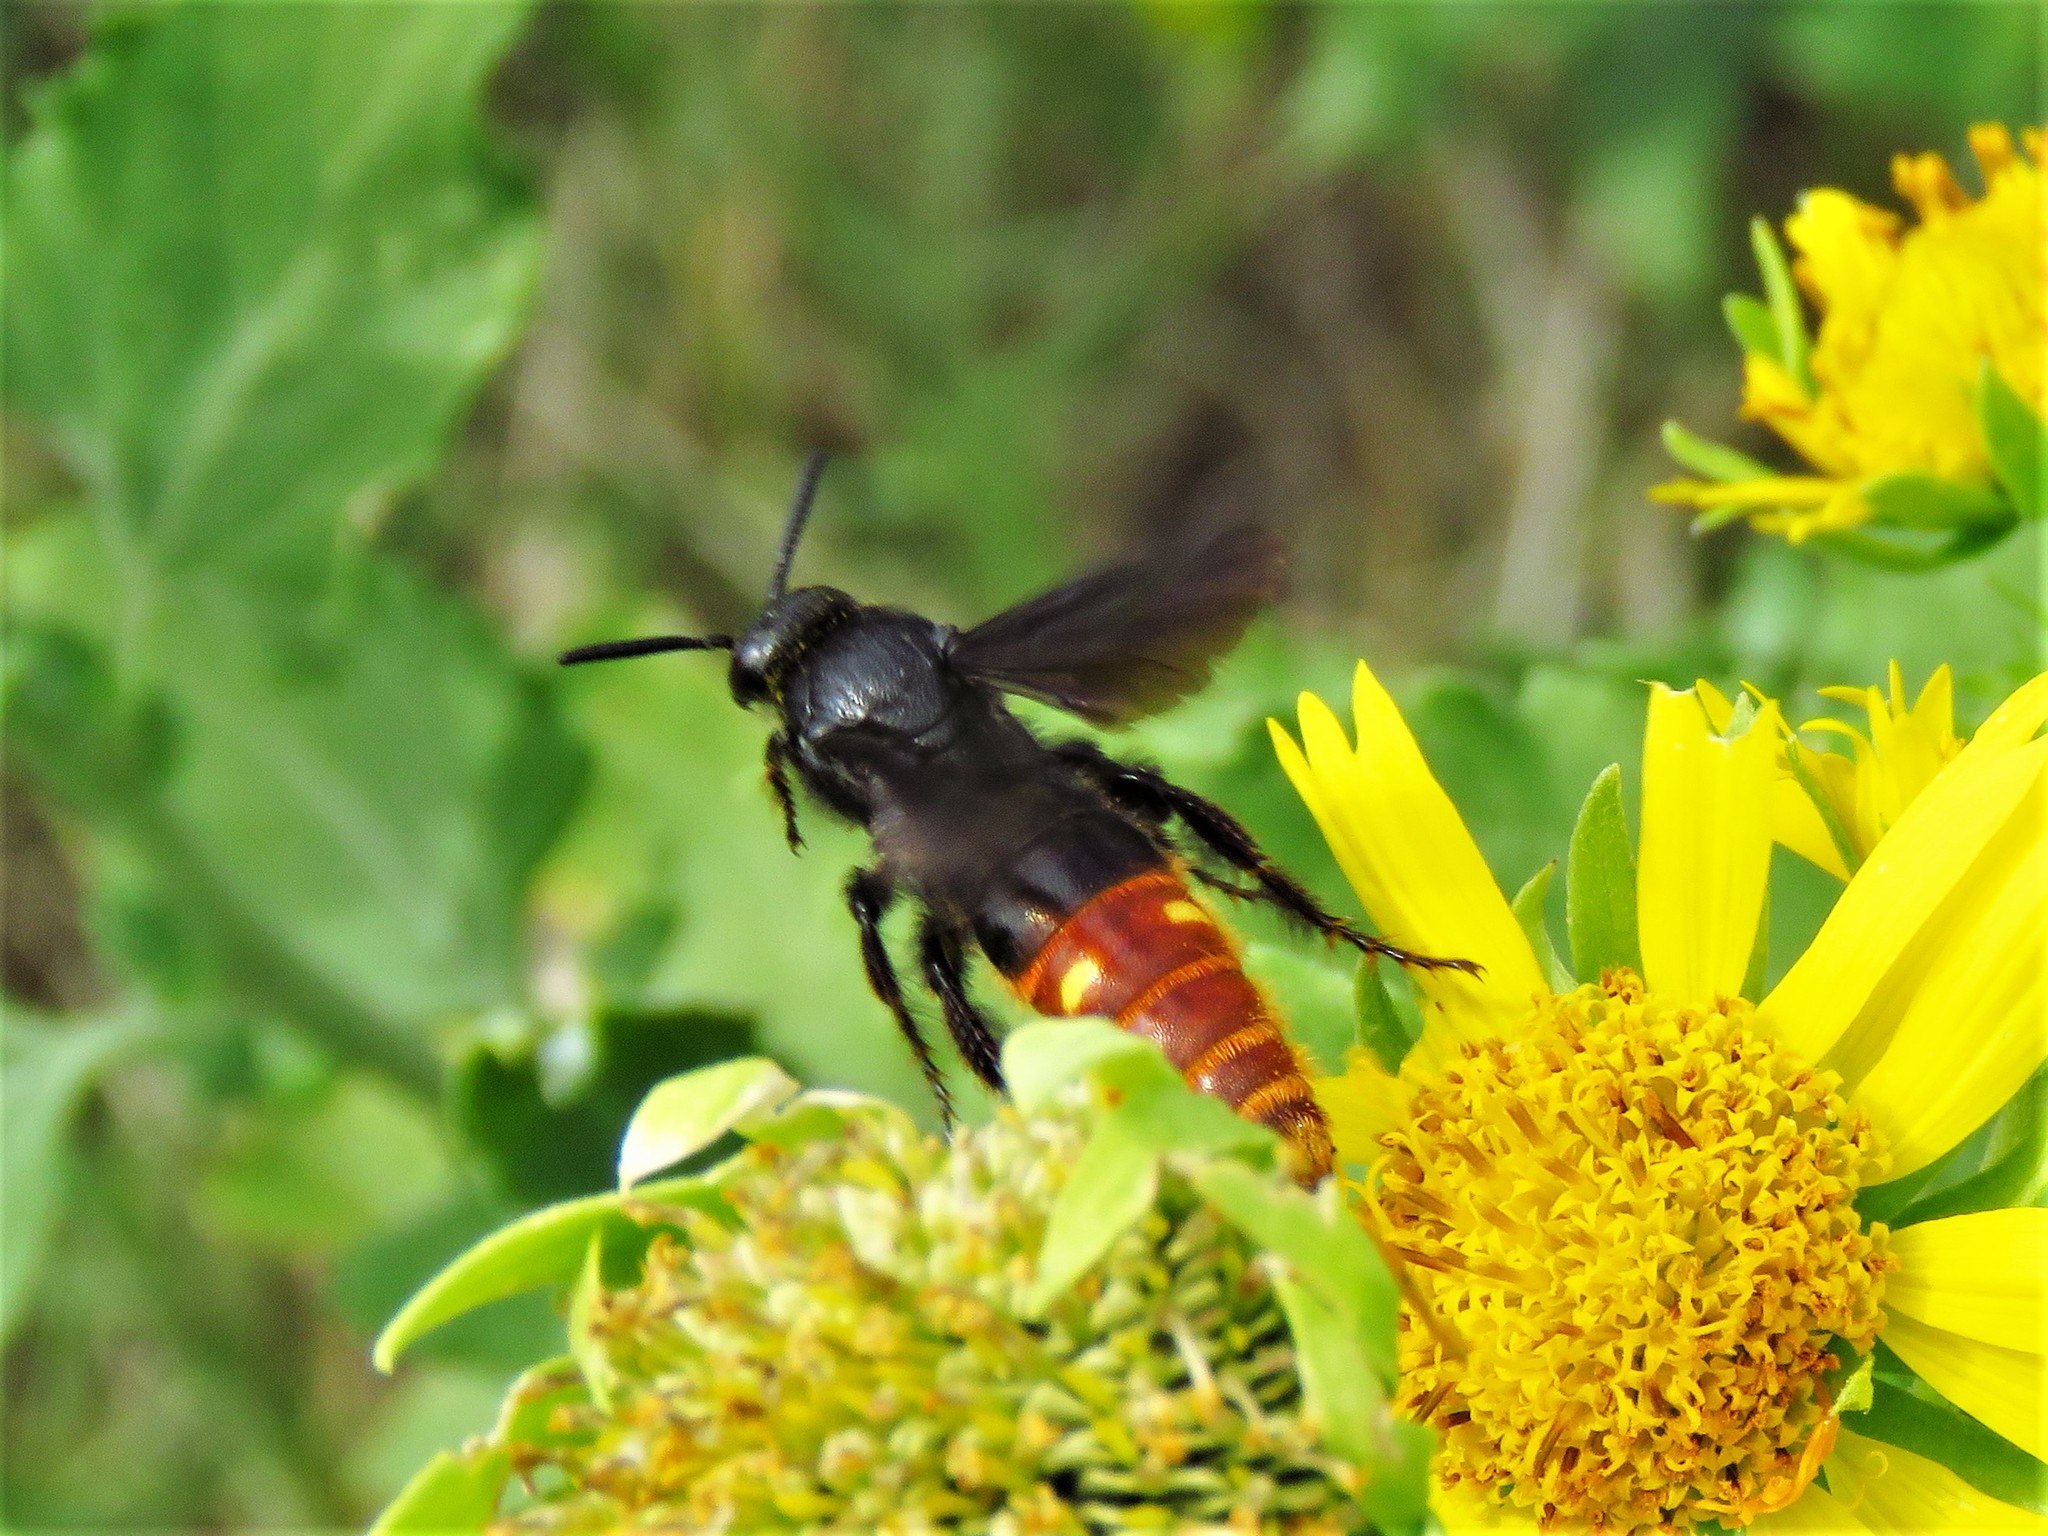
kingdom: Animalia
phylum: Arthropoda
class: Insecta
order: Hymenoptera
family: Scoliidae
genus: Scolia
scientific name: Scolia dubia
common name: Blue-winged scoliid wasp
